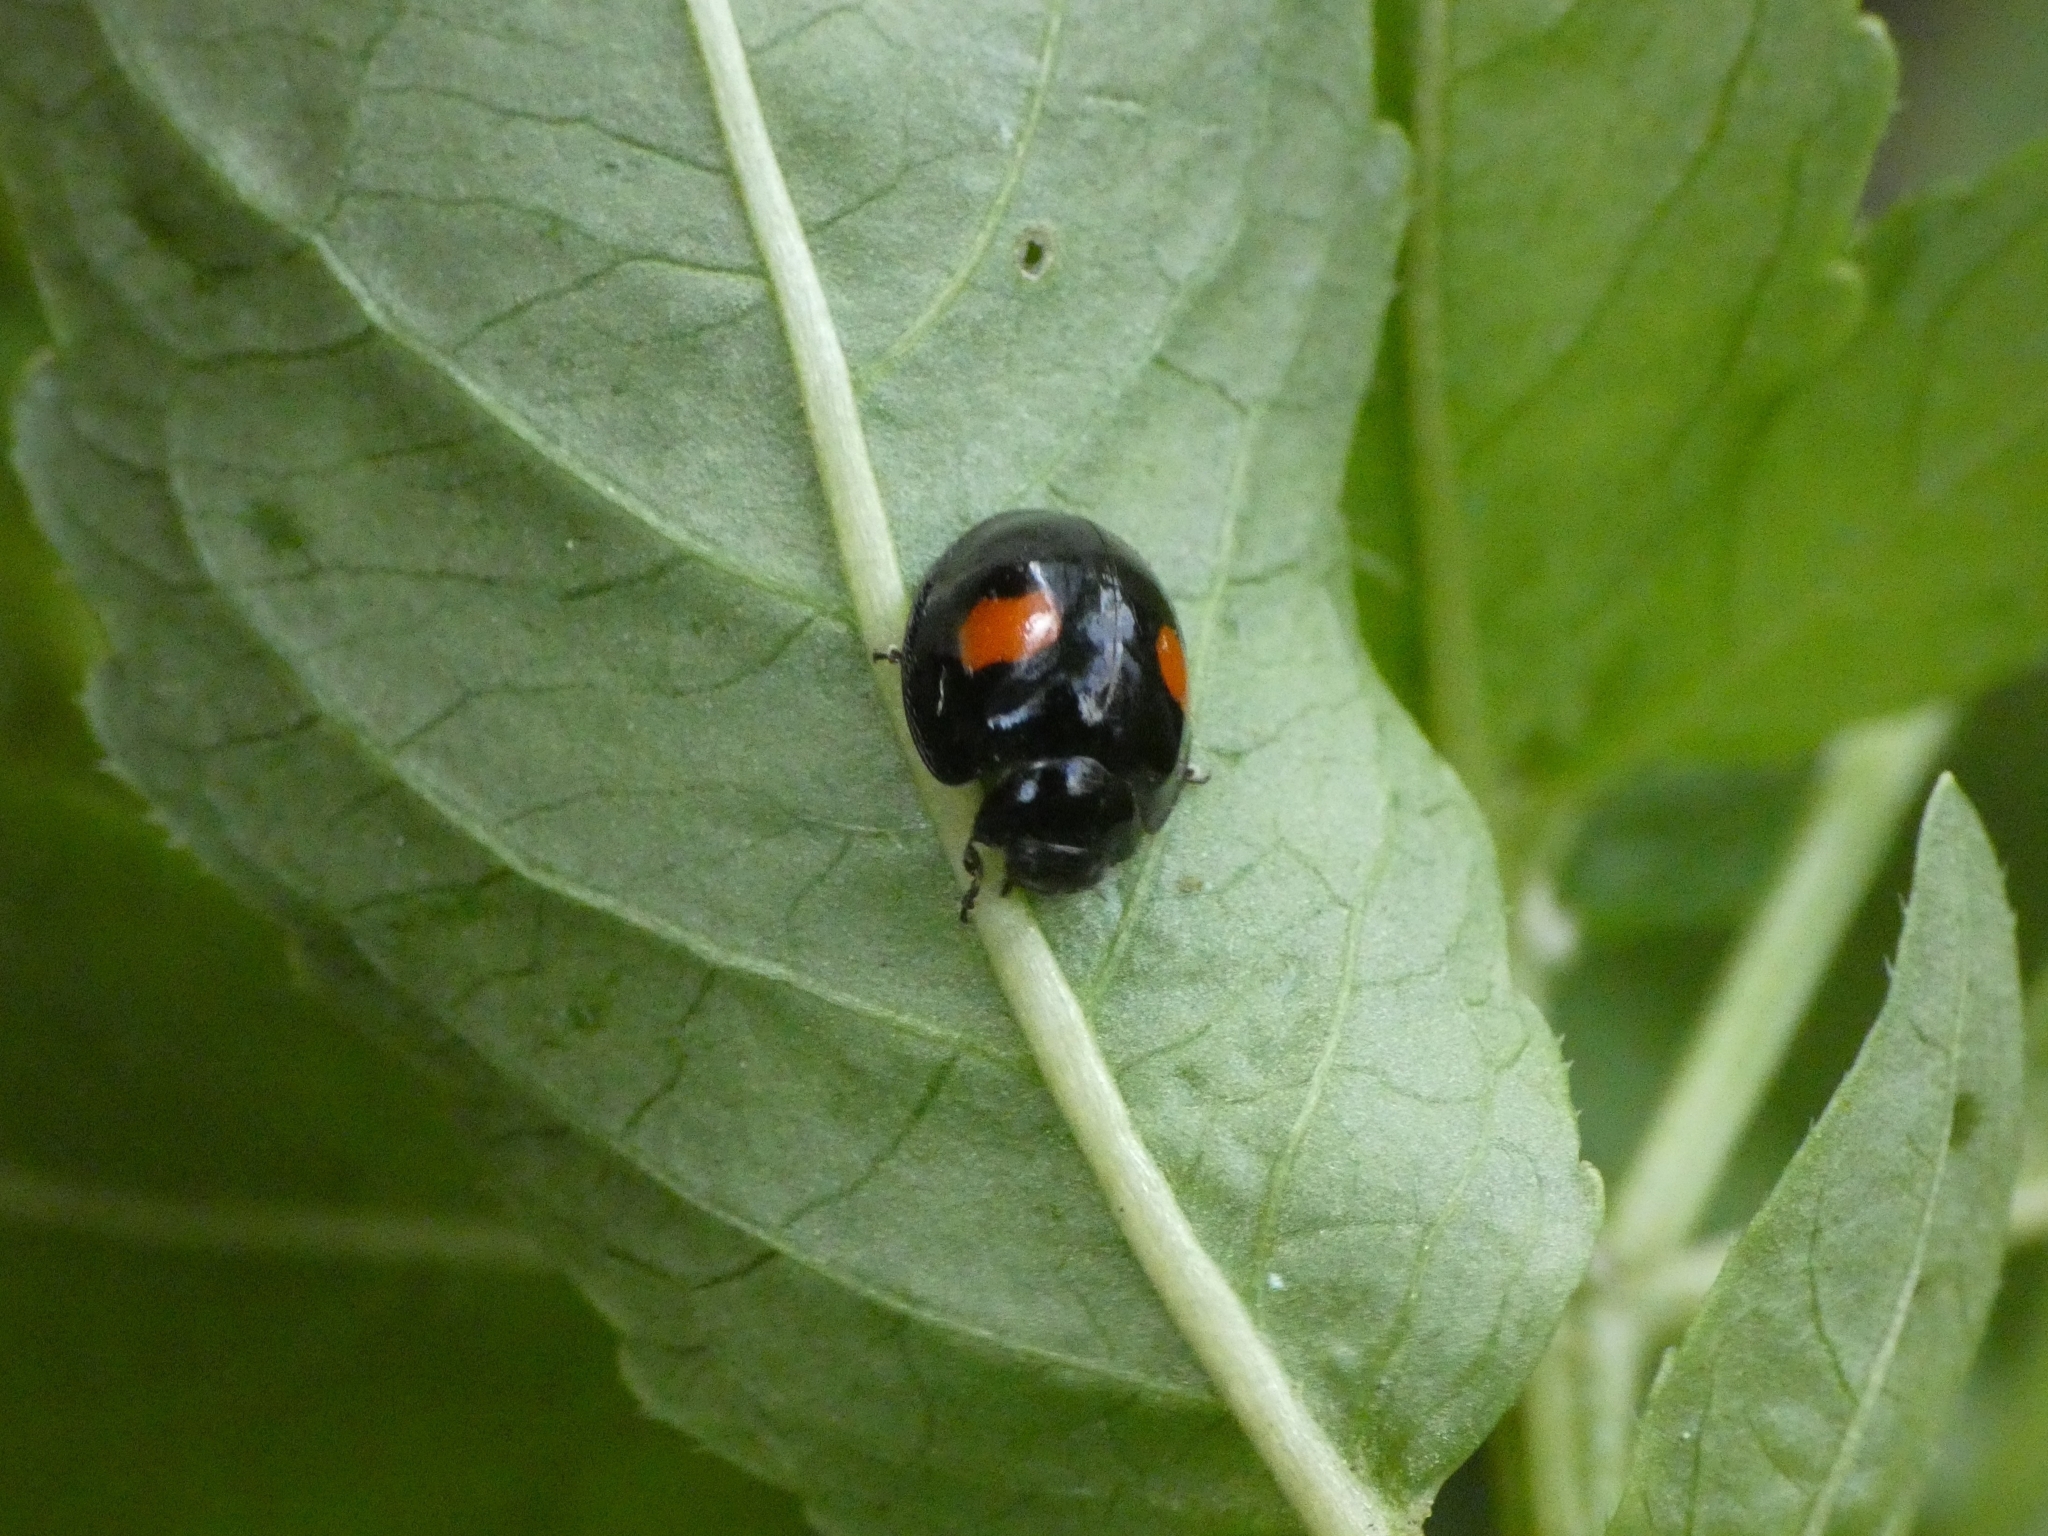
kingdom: Animalia
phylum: Arthropoda
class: Insecta
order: Coleoptera
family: Coccinellidae
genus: Chilocorus
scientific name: Chilocorus renipustulatus
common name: Kidney-spot ladybird
